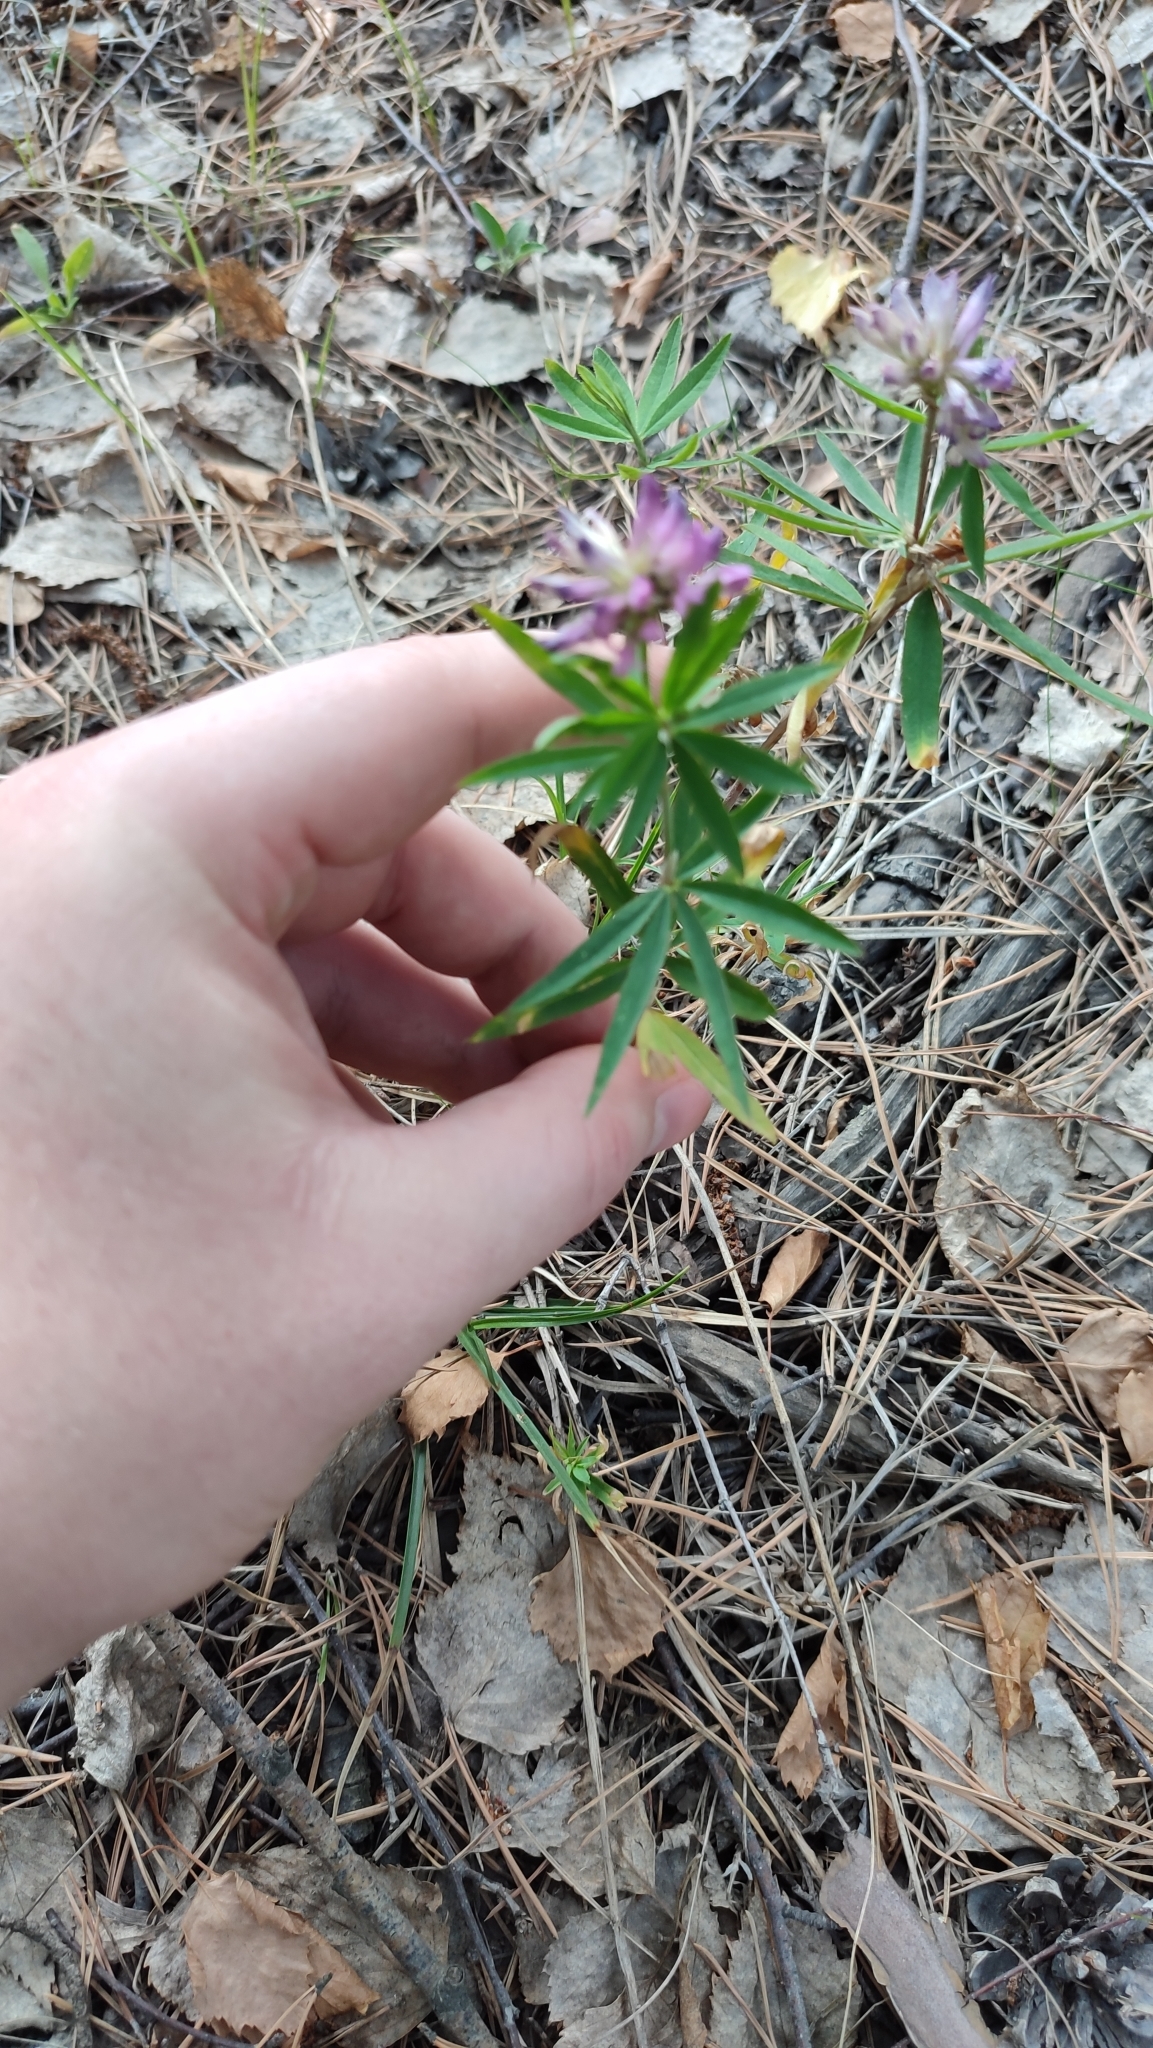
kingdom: Plantae
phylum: Tracheophyta
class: Magnoliopsida
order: Fabales
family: Fabaceae
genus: Trifolium
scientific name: Trifolium lupinaster
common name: Lupine clover
